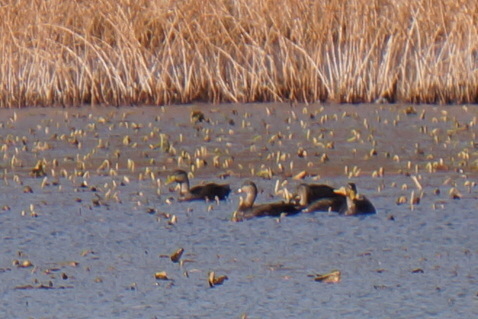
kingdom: Animalia
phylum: Chordata
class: Aves
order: Anseriformes
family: Anatidae
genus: Anas
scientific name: Anas rubripes
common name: American black duck
